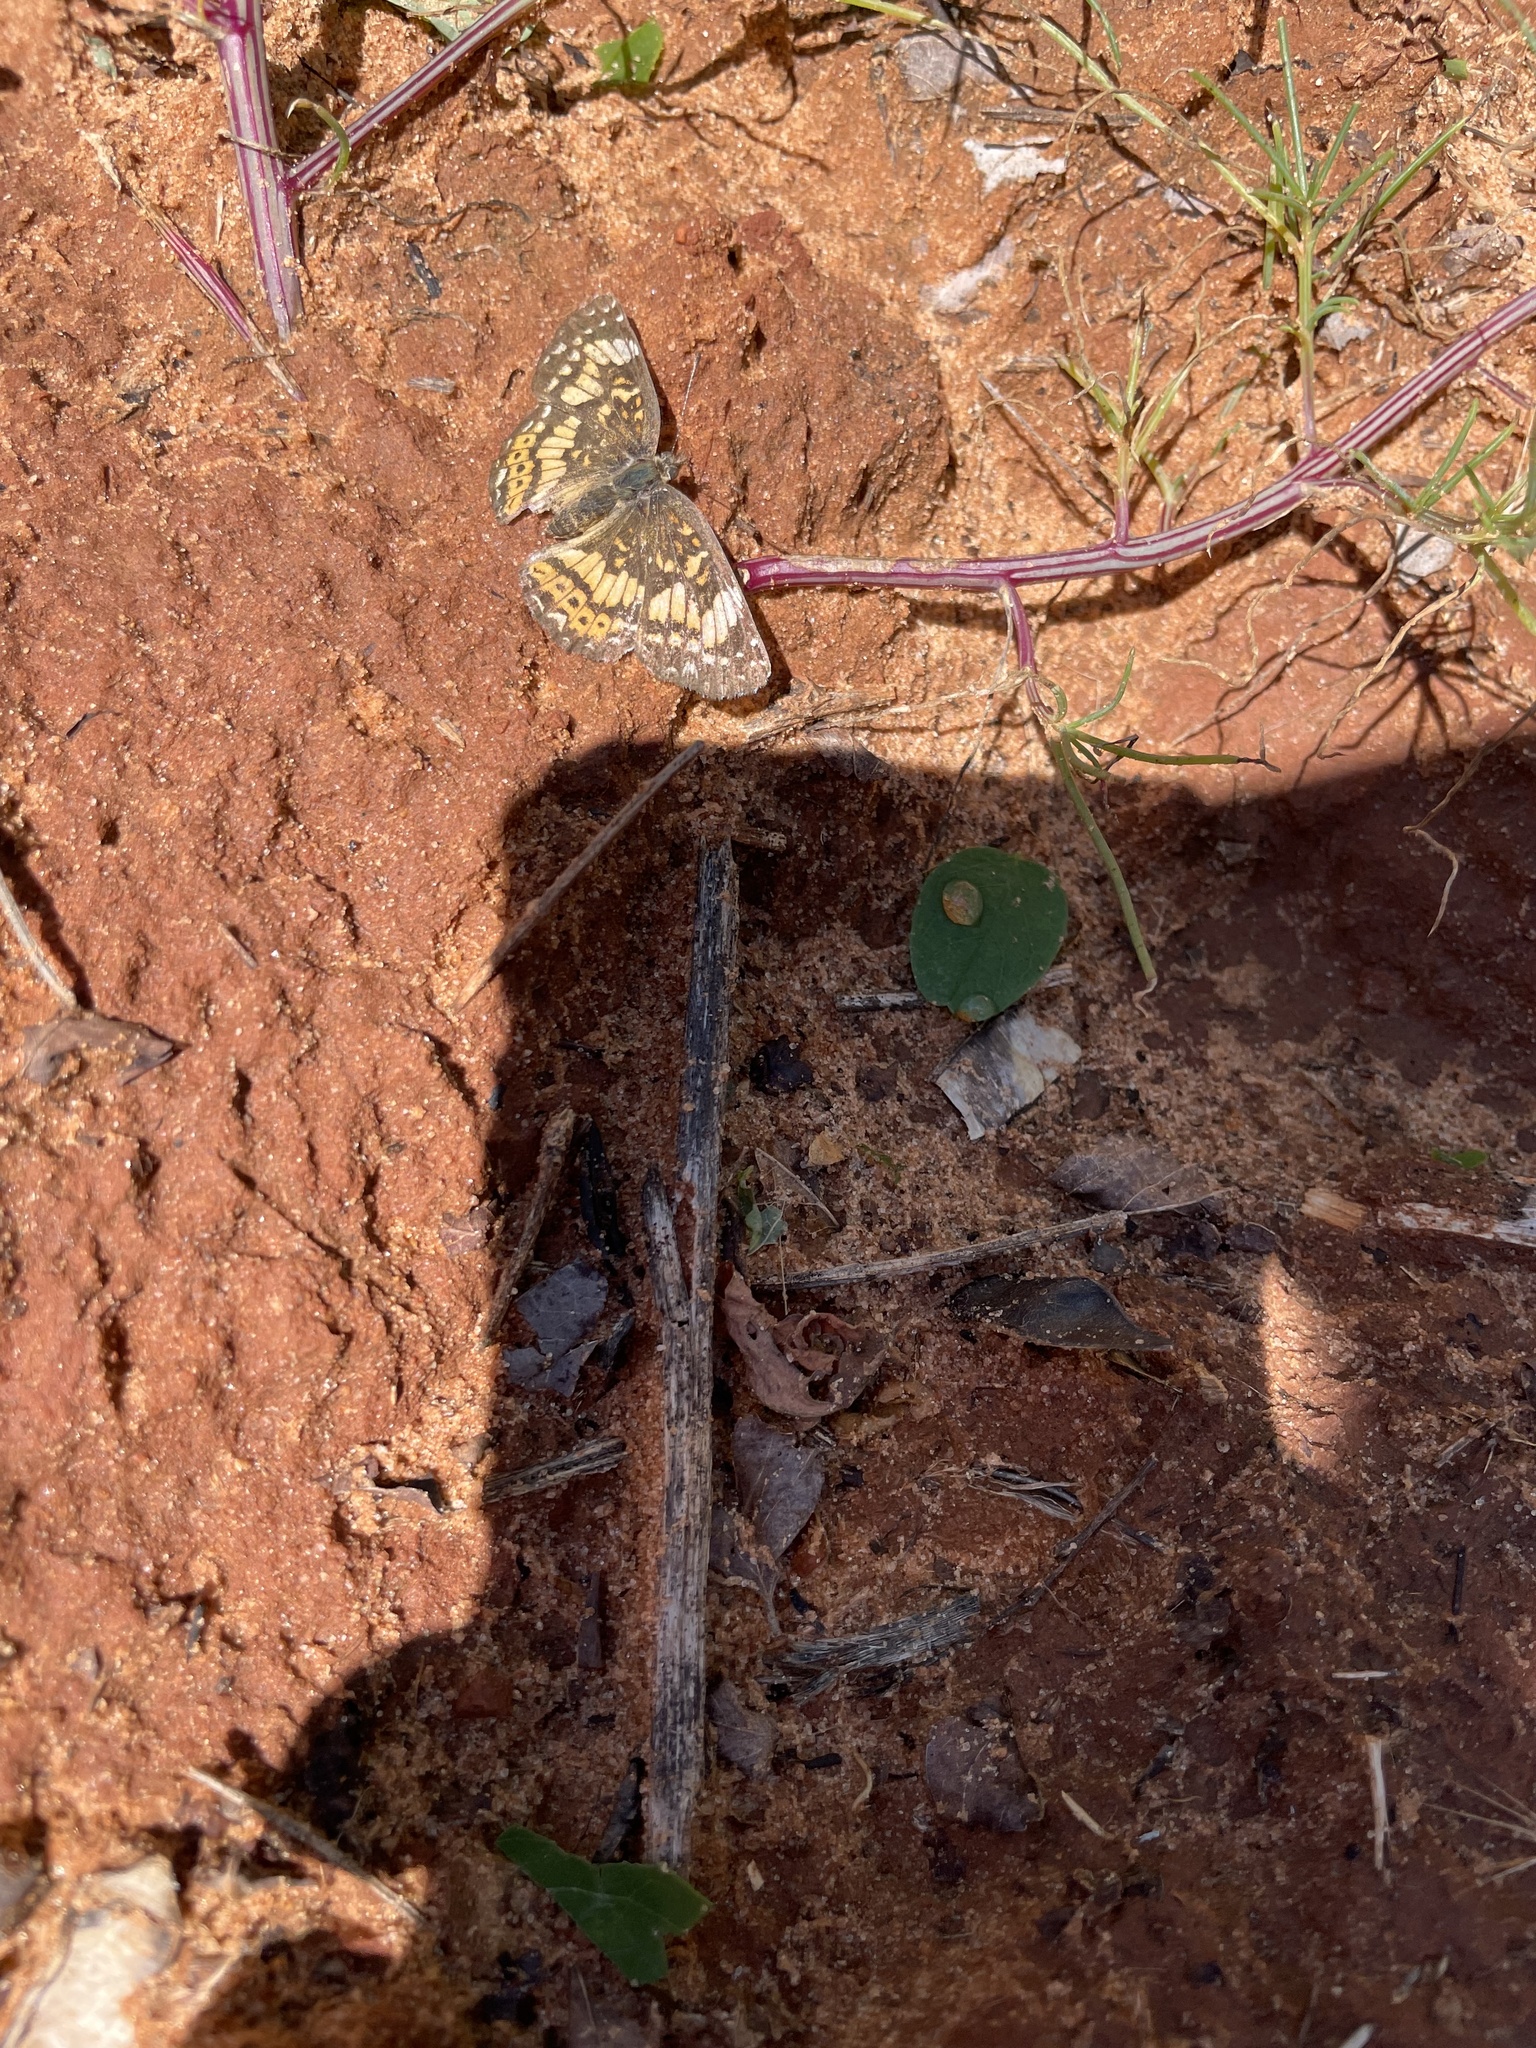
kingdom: Animalia
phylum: Arthropoda
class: Insecta
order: Lepidoptera
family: Nymphalidae
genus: Chlosyne
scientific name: Chlosyne gorgone
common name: Gorgone checkerspot
